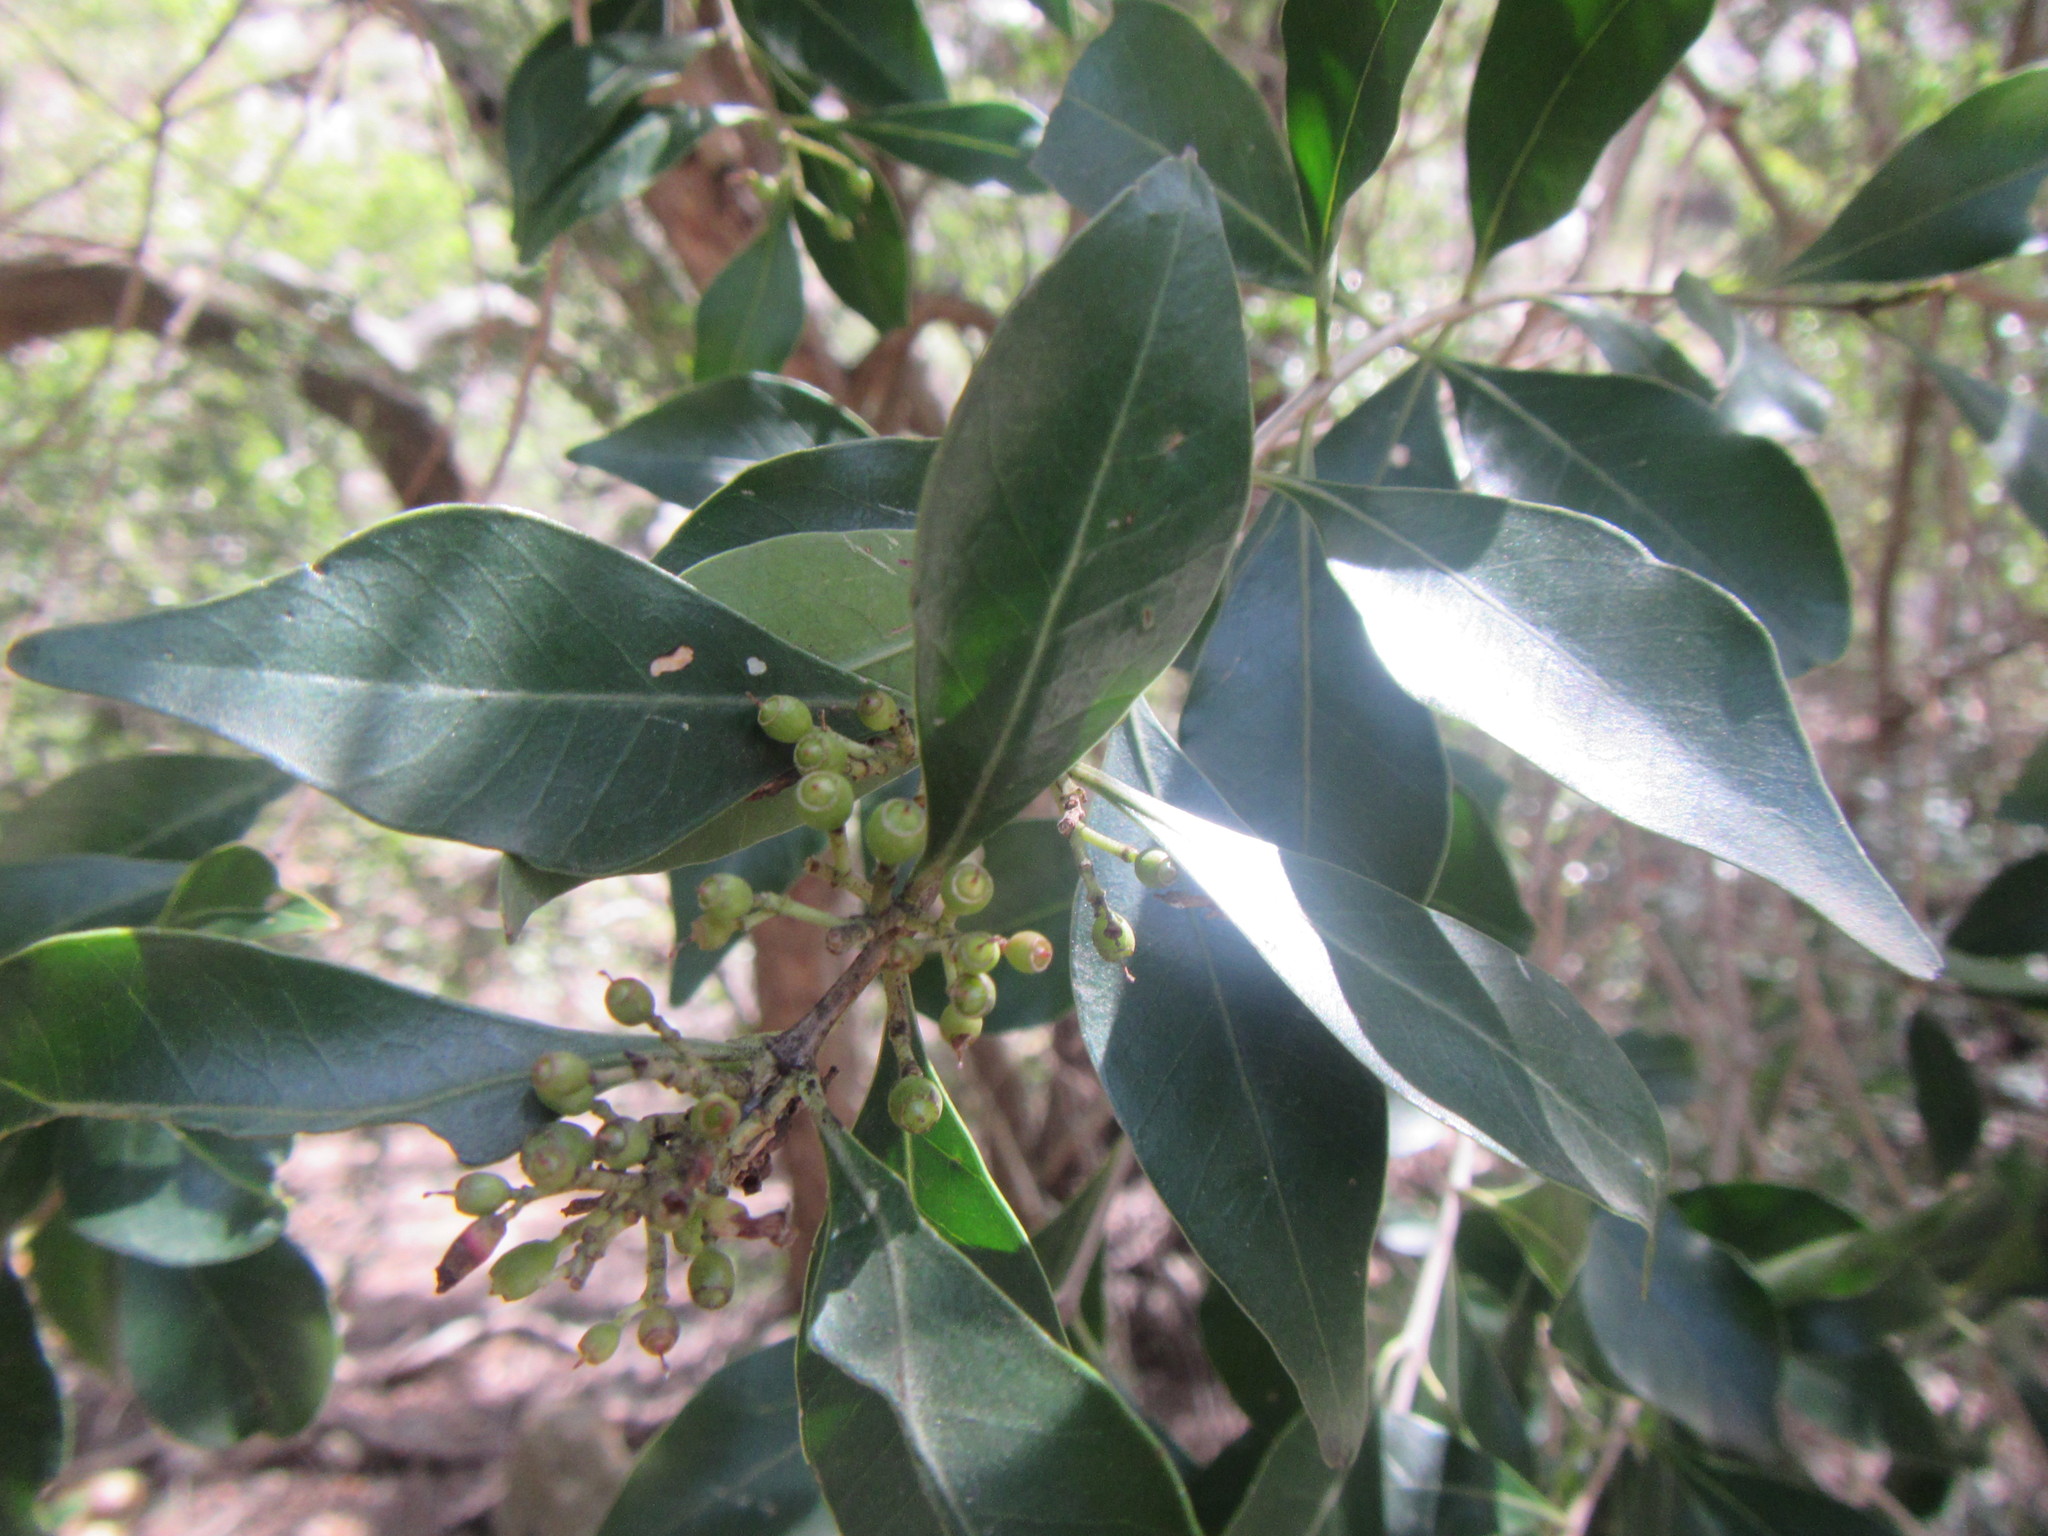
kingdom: Plantae
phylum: Tracheophyta
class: Magnoliopsida
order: Myrtales
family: Penaeaceae
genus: Olinia
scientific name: Olinia ventosa
